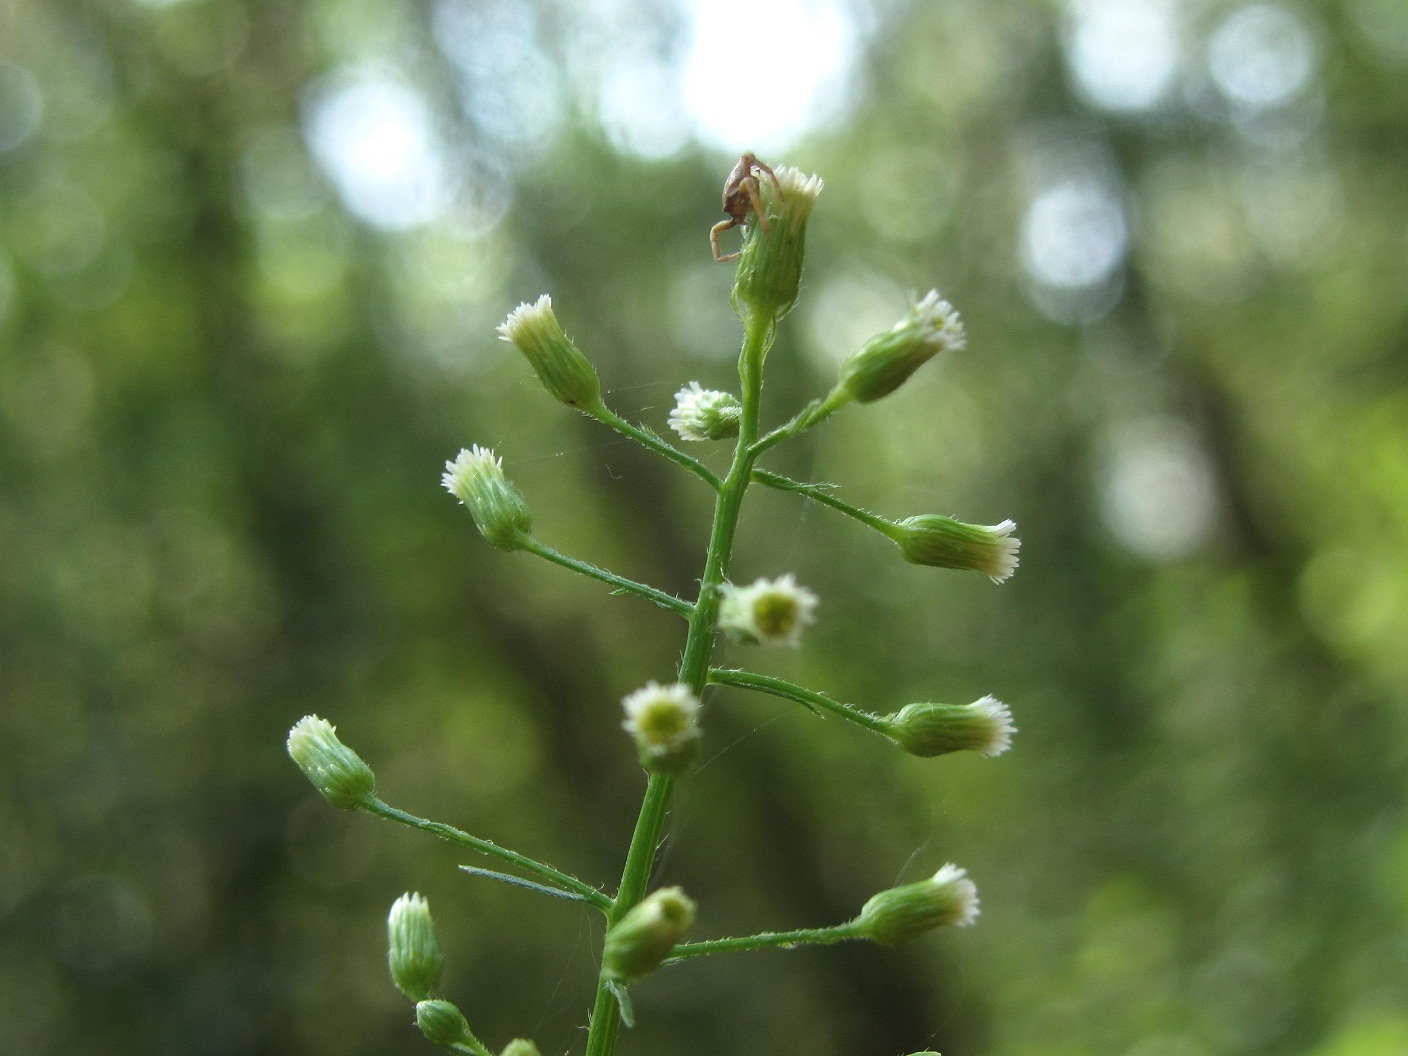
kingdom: Plantae
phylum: Tracheophyta
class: Magnoliopsida
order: Asterales
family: Asteraceae
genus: Erigeron
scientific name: Erigeron canadensis
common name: Canadian fleabane
